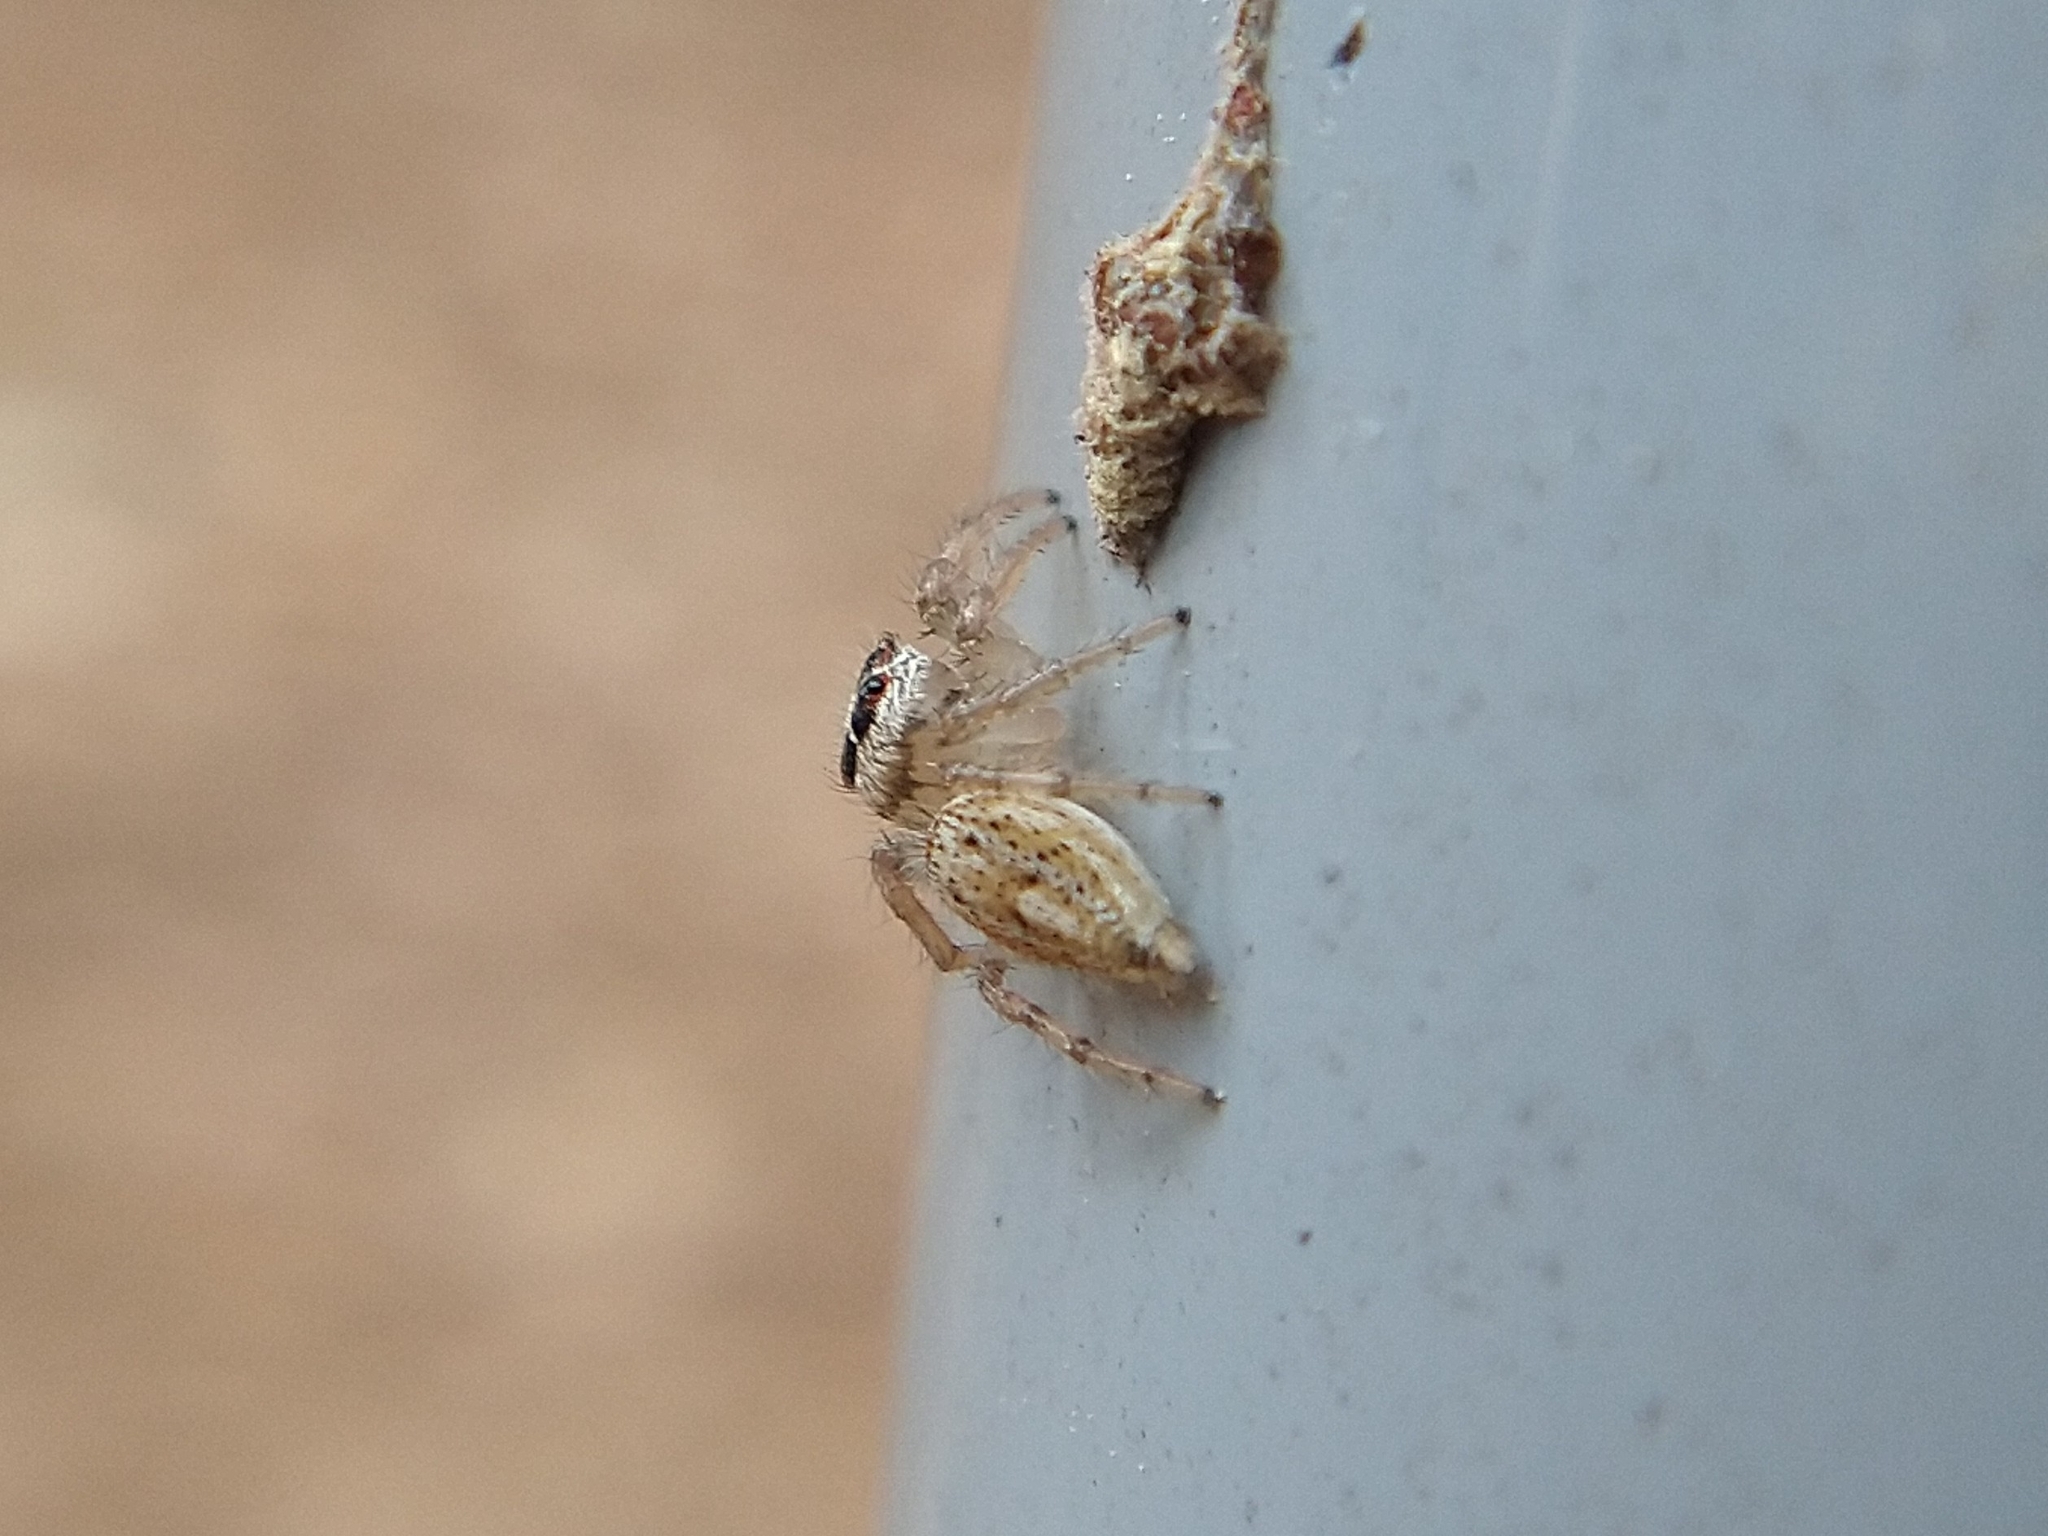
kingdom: Animalia
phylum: Arthropoda
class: Arachnida
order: Araneae
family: Salticidae
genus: Colonus
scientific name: Colonus hesperus
